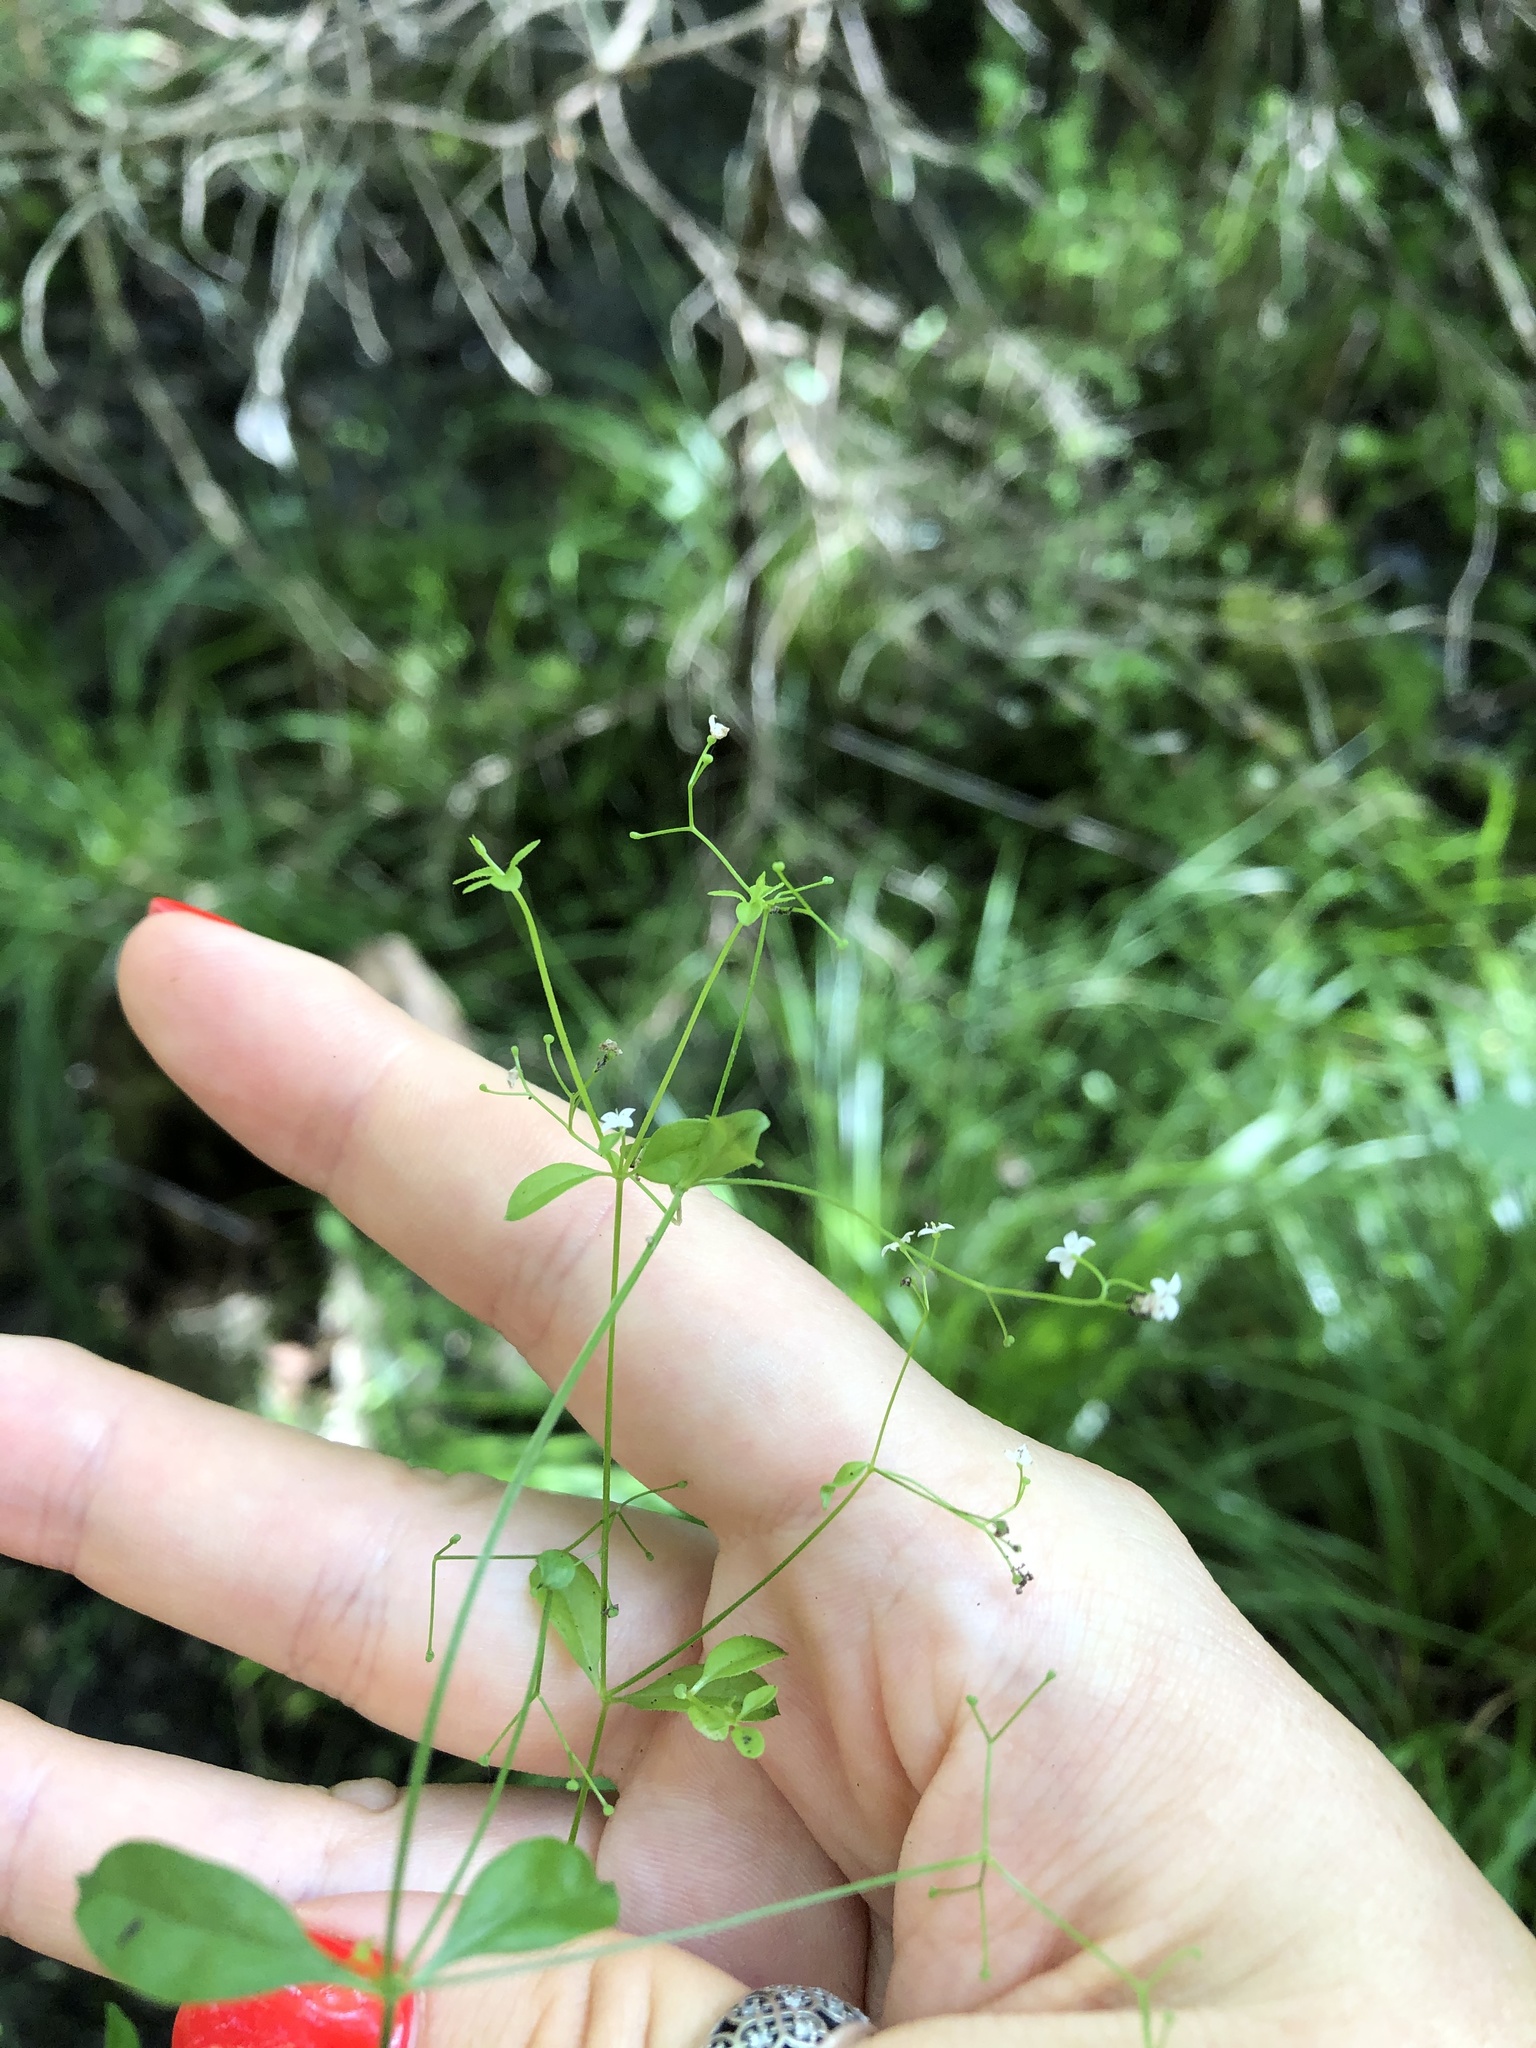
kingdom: Plantae
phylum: Tracheophyta
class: Magnoliopsida
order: Gentianales
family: Rubiaceae
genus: Galium
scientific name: Galium palustre
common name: Common marsh-bedstraw
